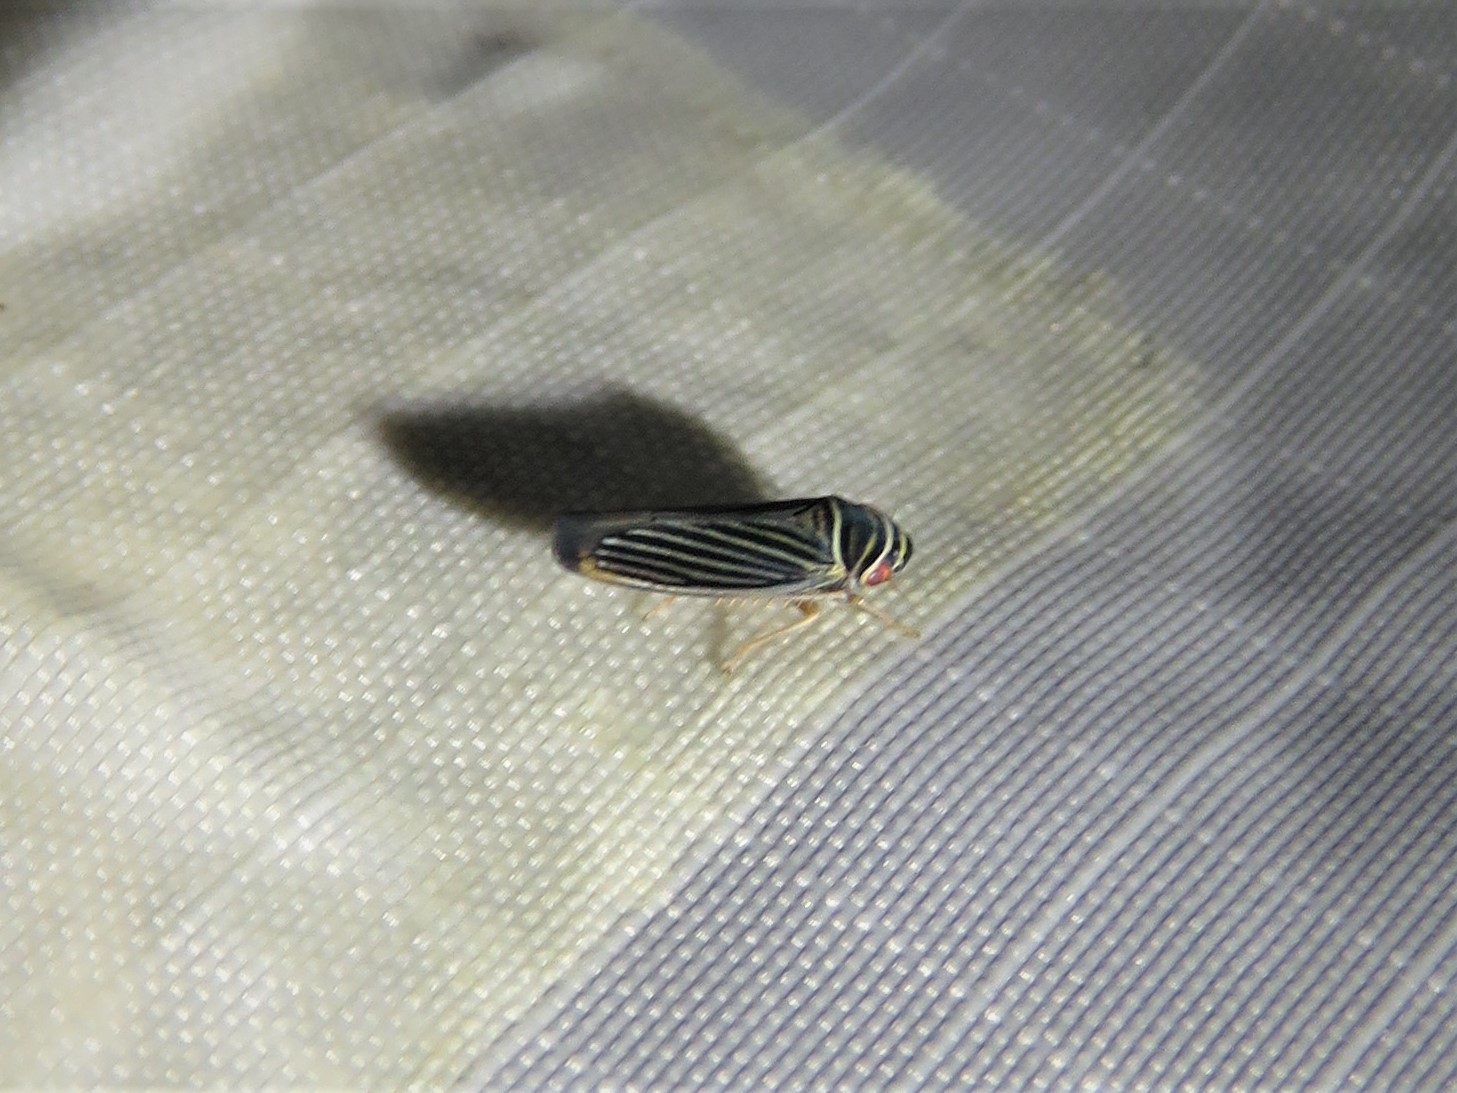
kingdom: Animalia
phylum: Arthropoda
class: Insecta
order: Hemiptera
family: Cicadellidae
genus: Tylozygus
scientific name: Tylozygus bifidus
